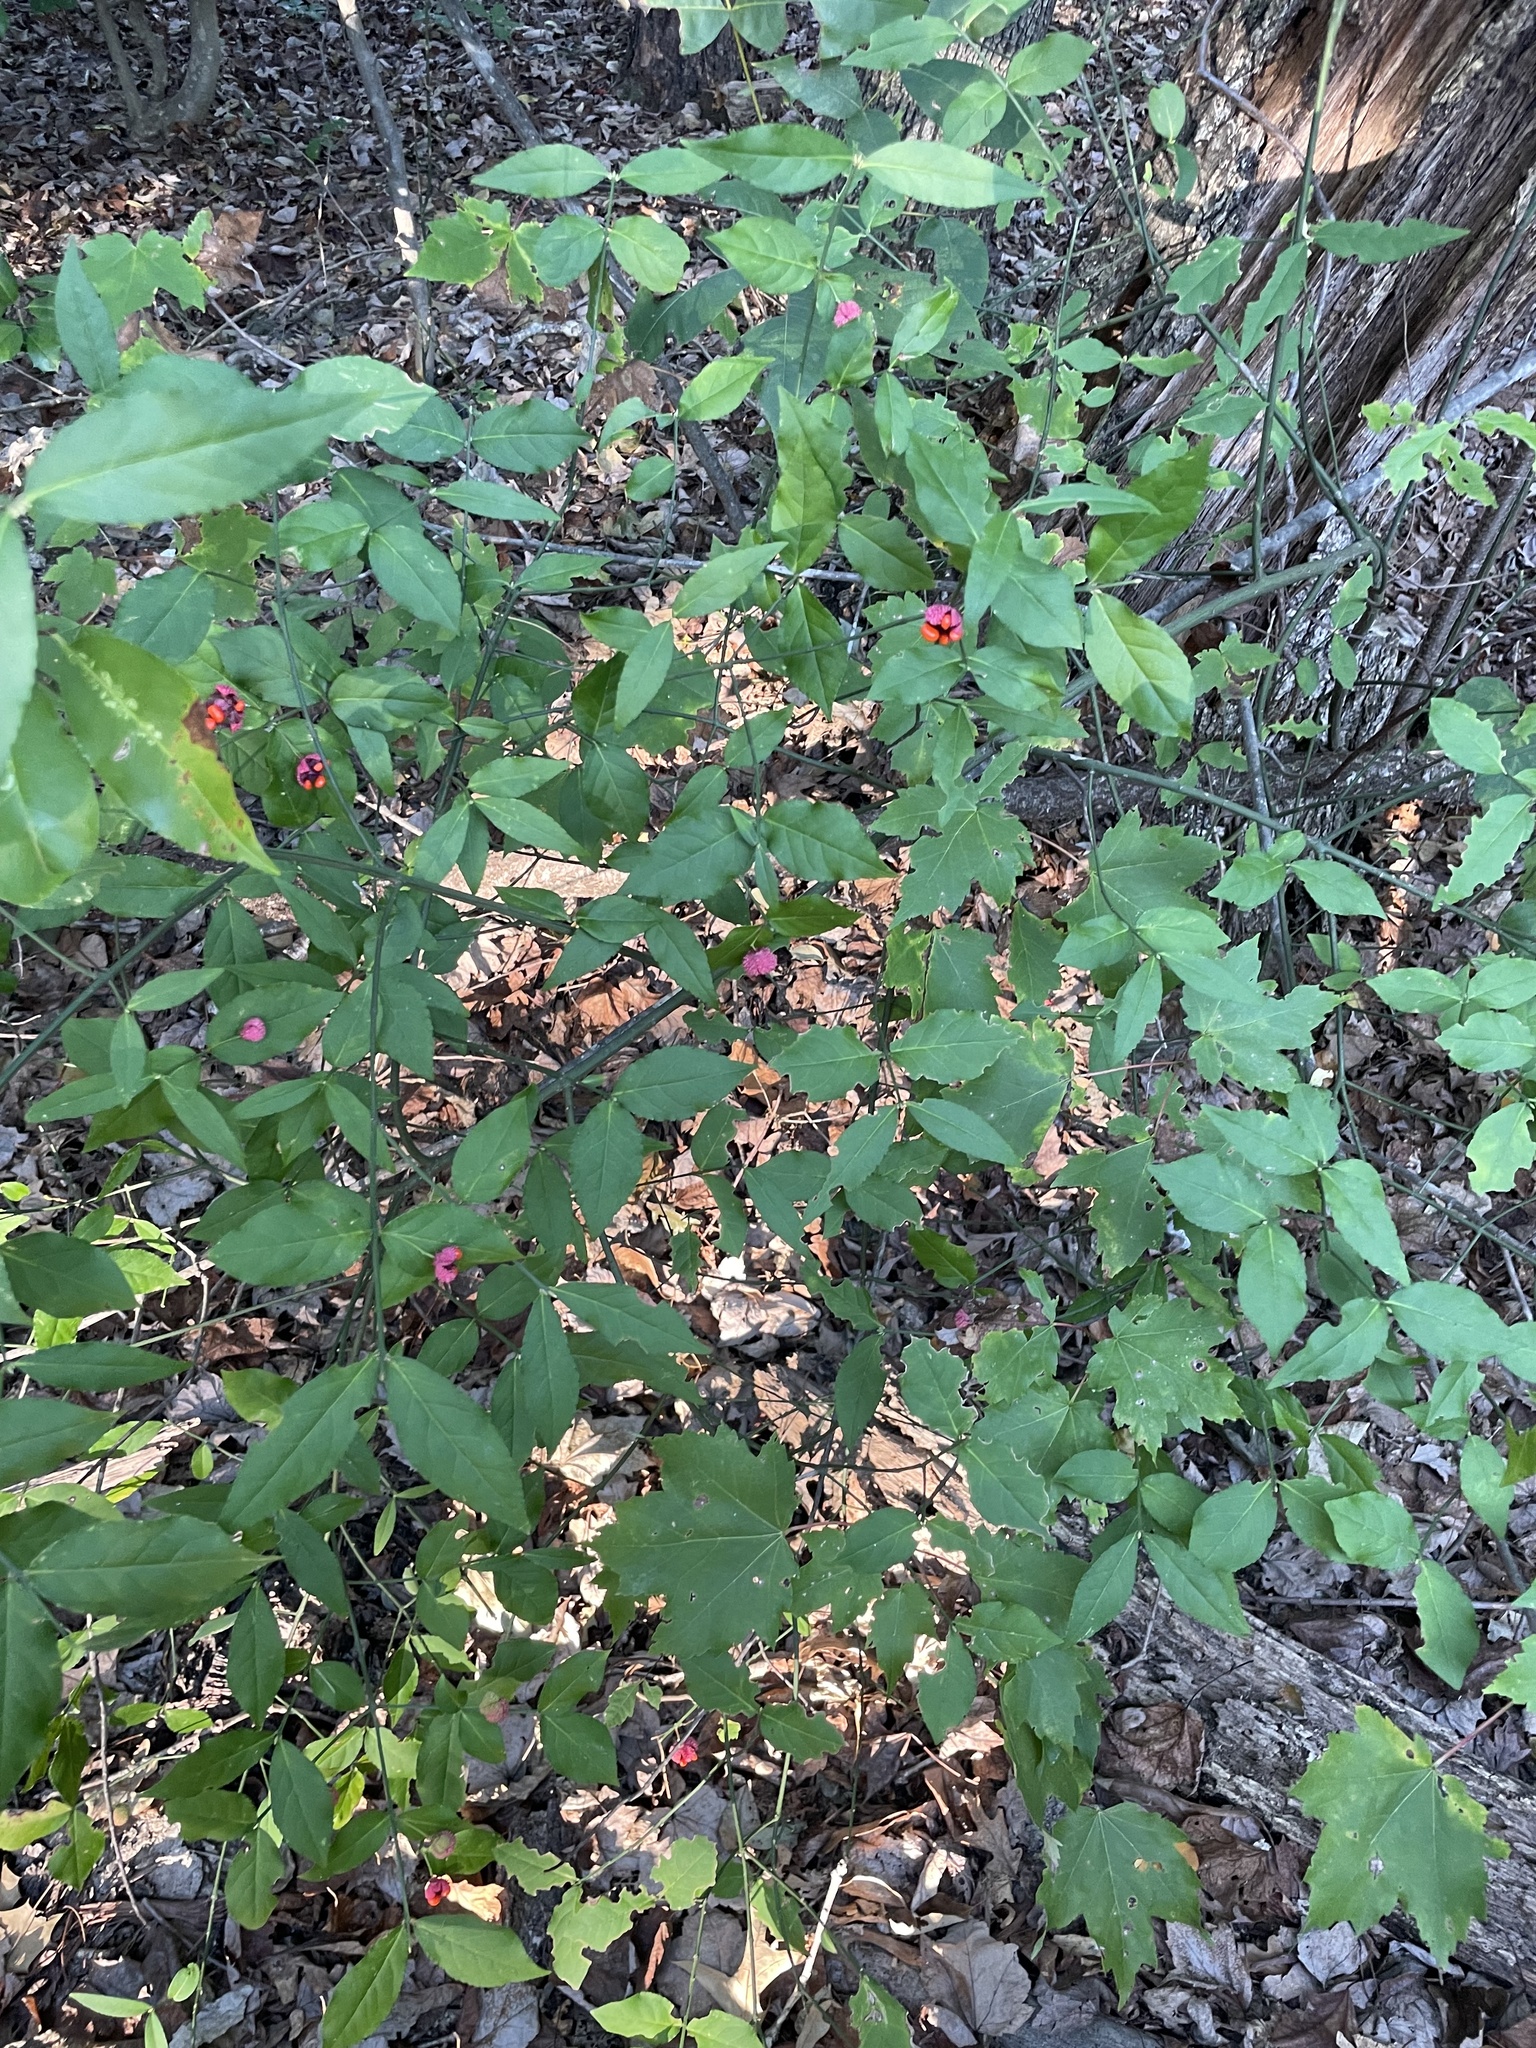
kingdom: Plantae
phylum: Tracheophyta
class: Magnoliopsida
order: Celastrales
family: Celastraceae
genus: Euonymus
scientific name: Euonymus americanus
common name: Bursting-heart
